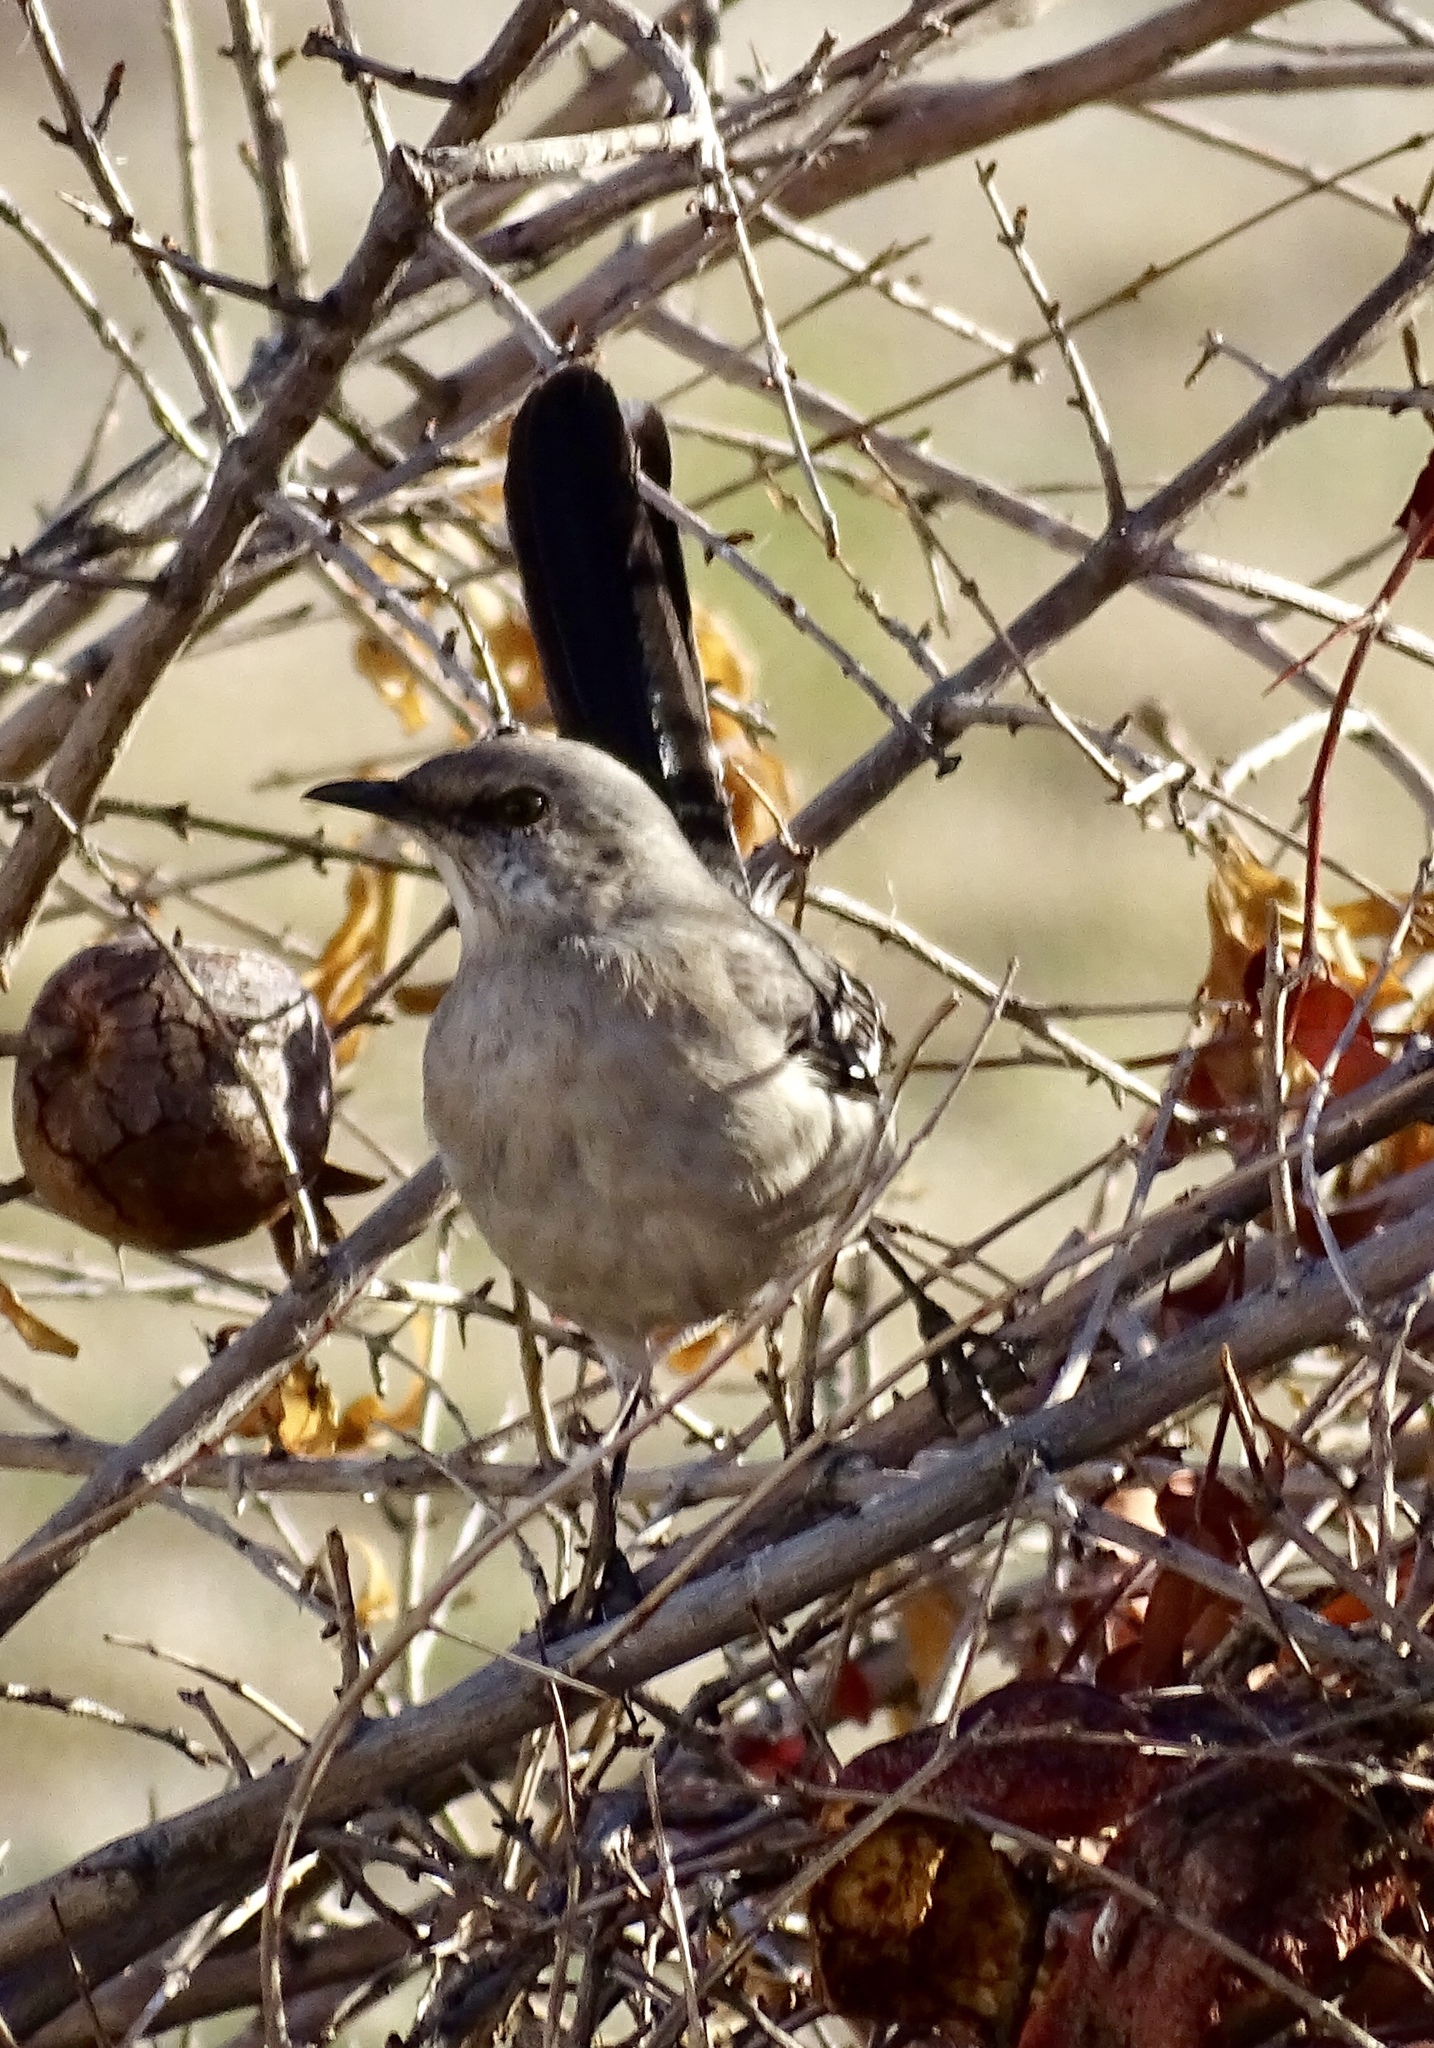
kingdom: Animalia
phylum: Chordata
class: Aves
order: Passeriformes
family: Mimidae
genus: Mimus
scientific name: Mimus polyglottos
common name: Northern mockingbird
